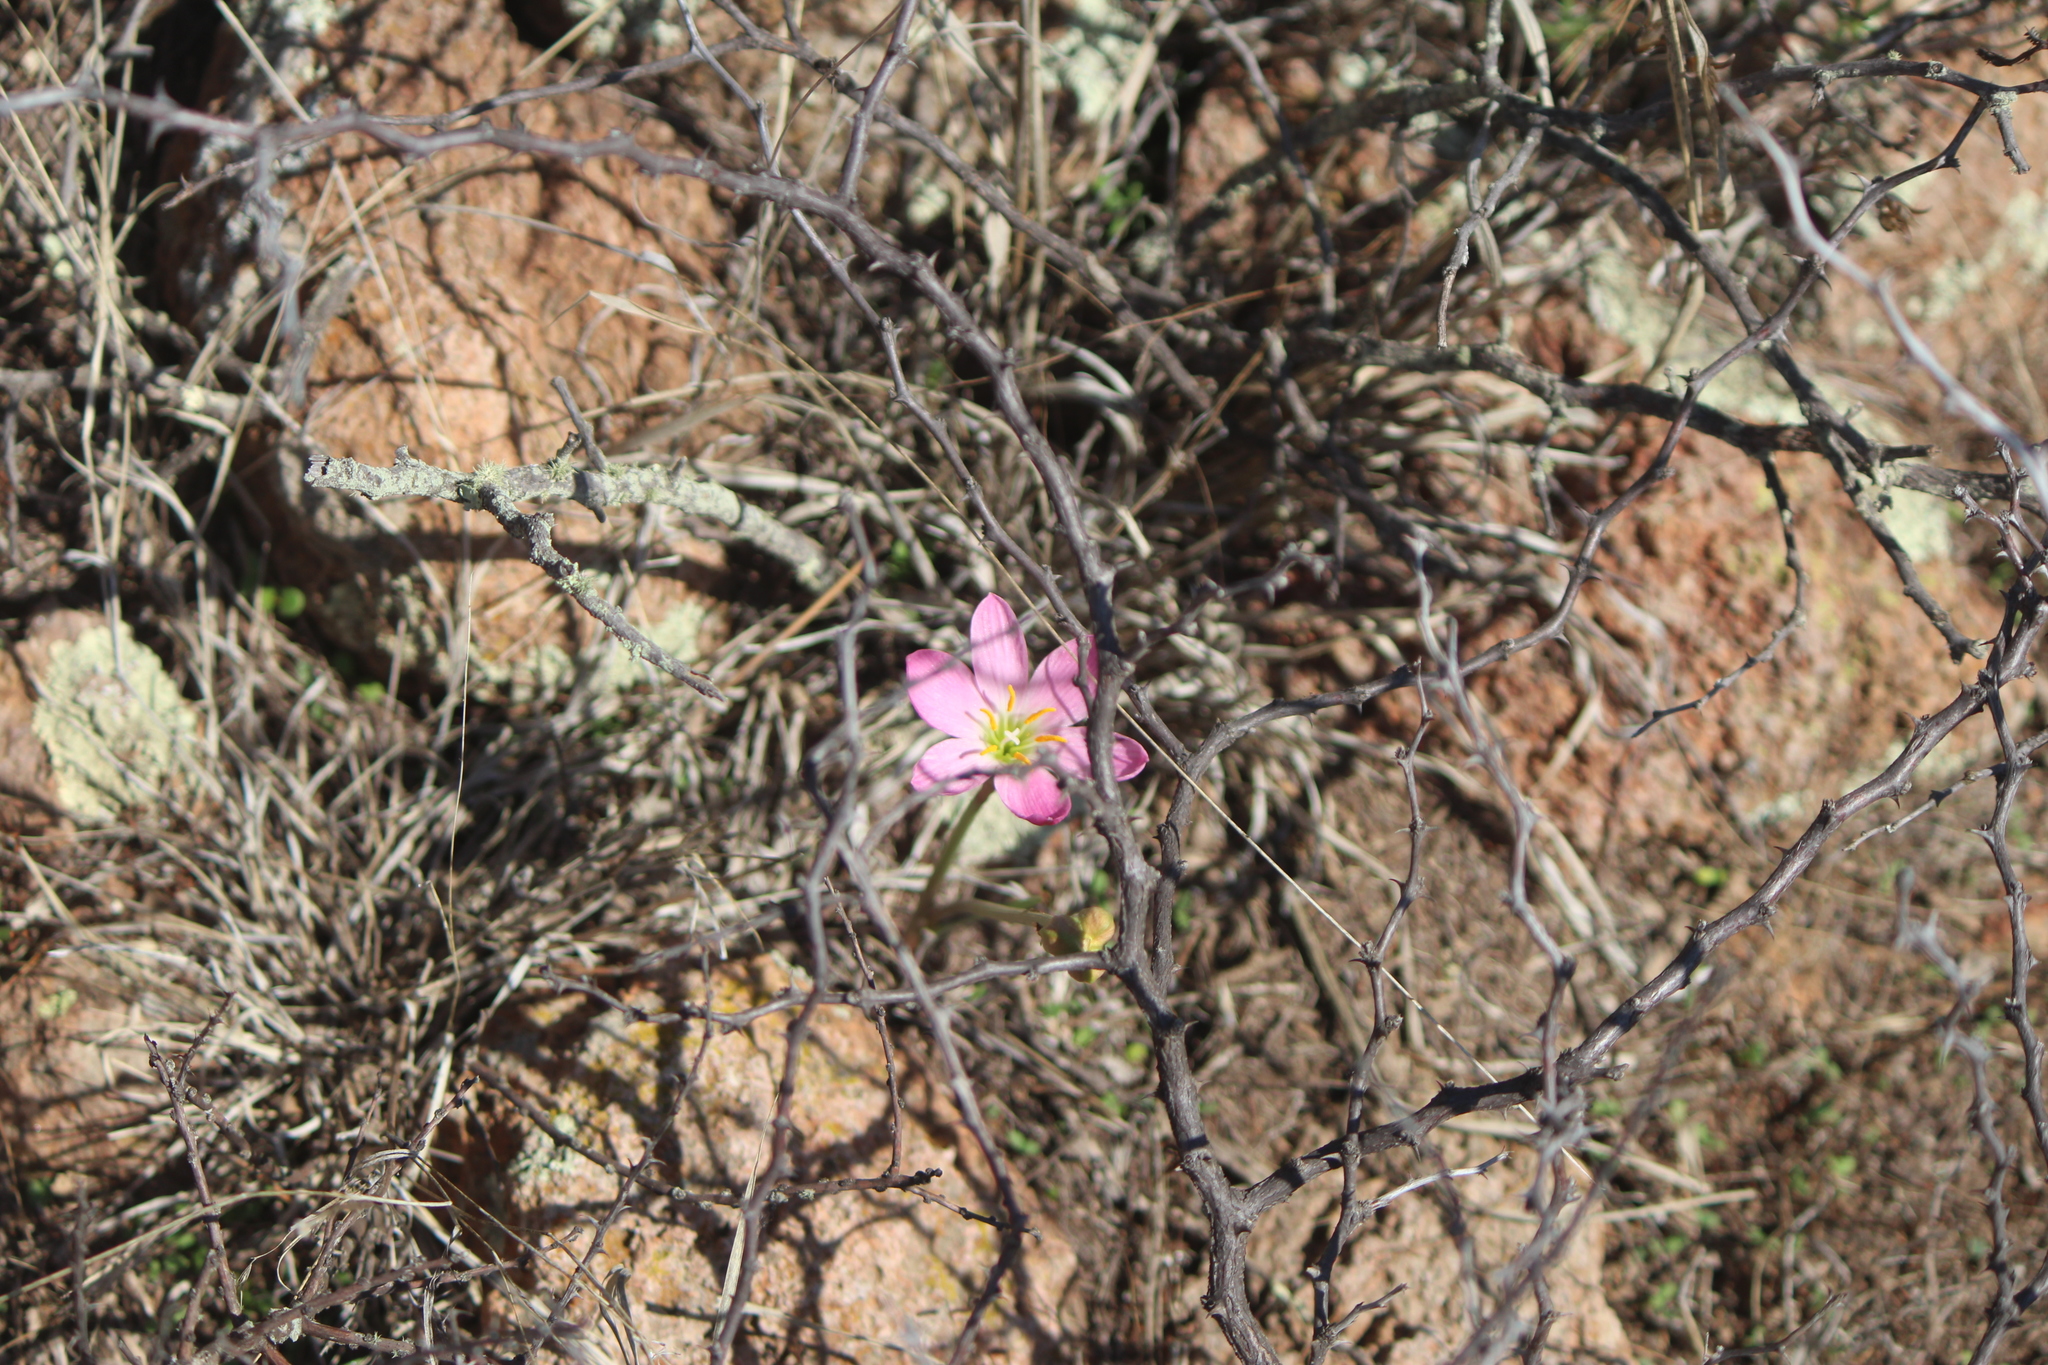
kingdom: Plantae
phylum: Tracheophyta
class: Liliopsida
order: Asparagales
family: Amaryllidaceae
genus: Zephyranthes
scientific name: Zephyranthes carinata
